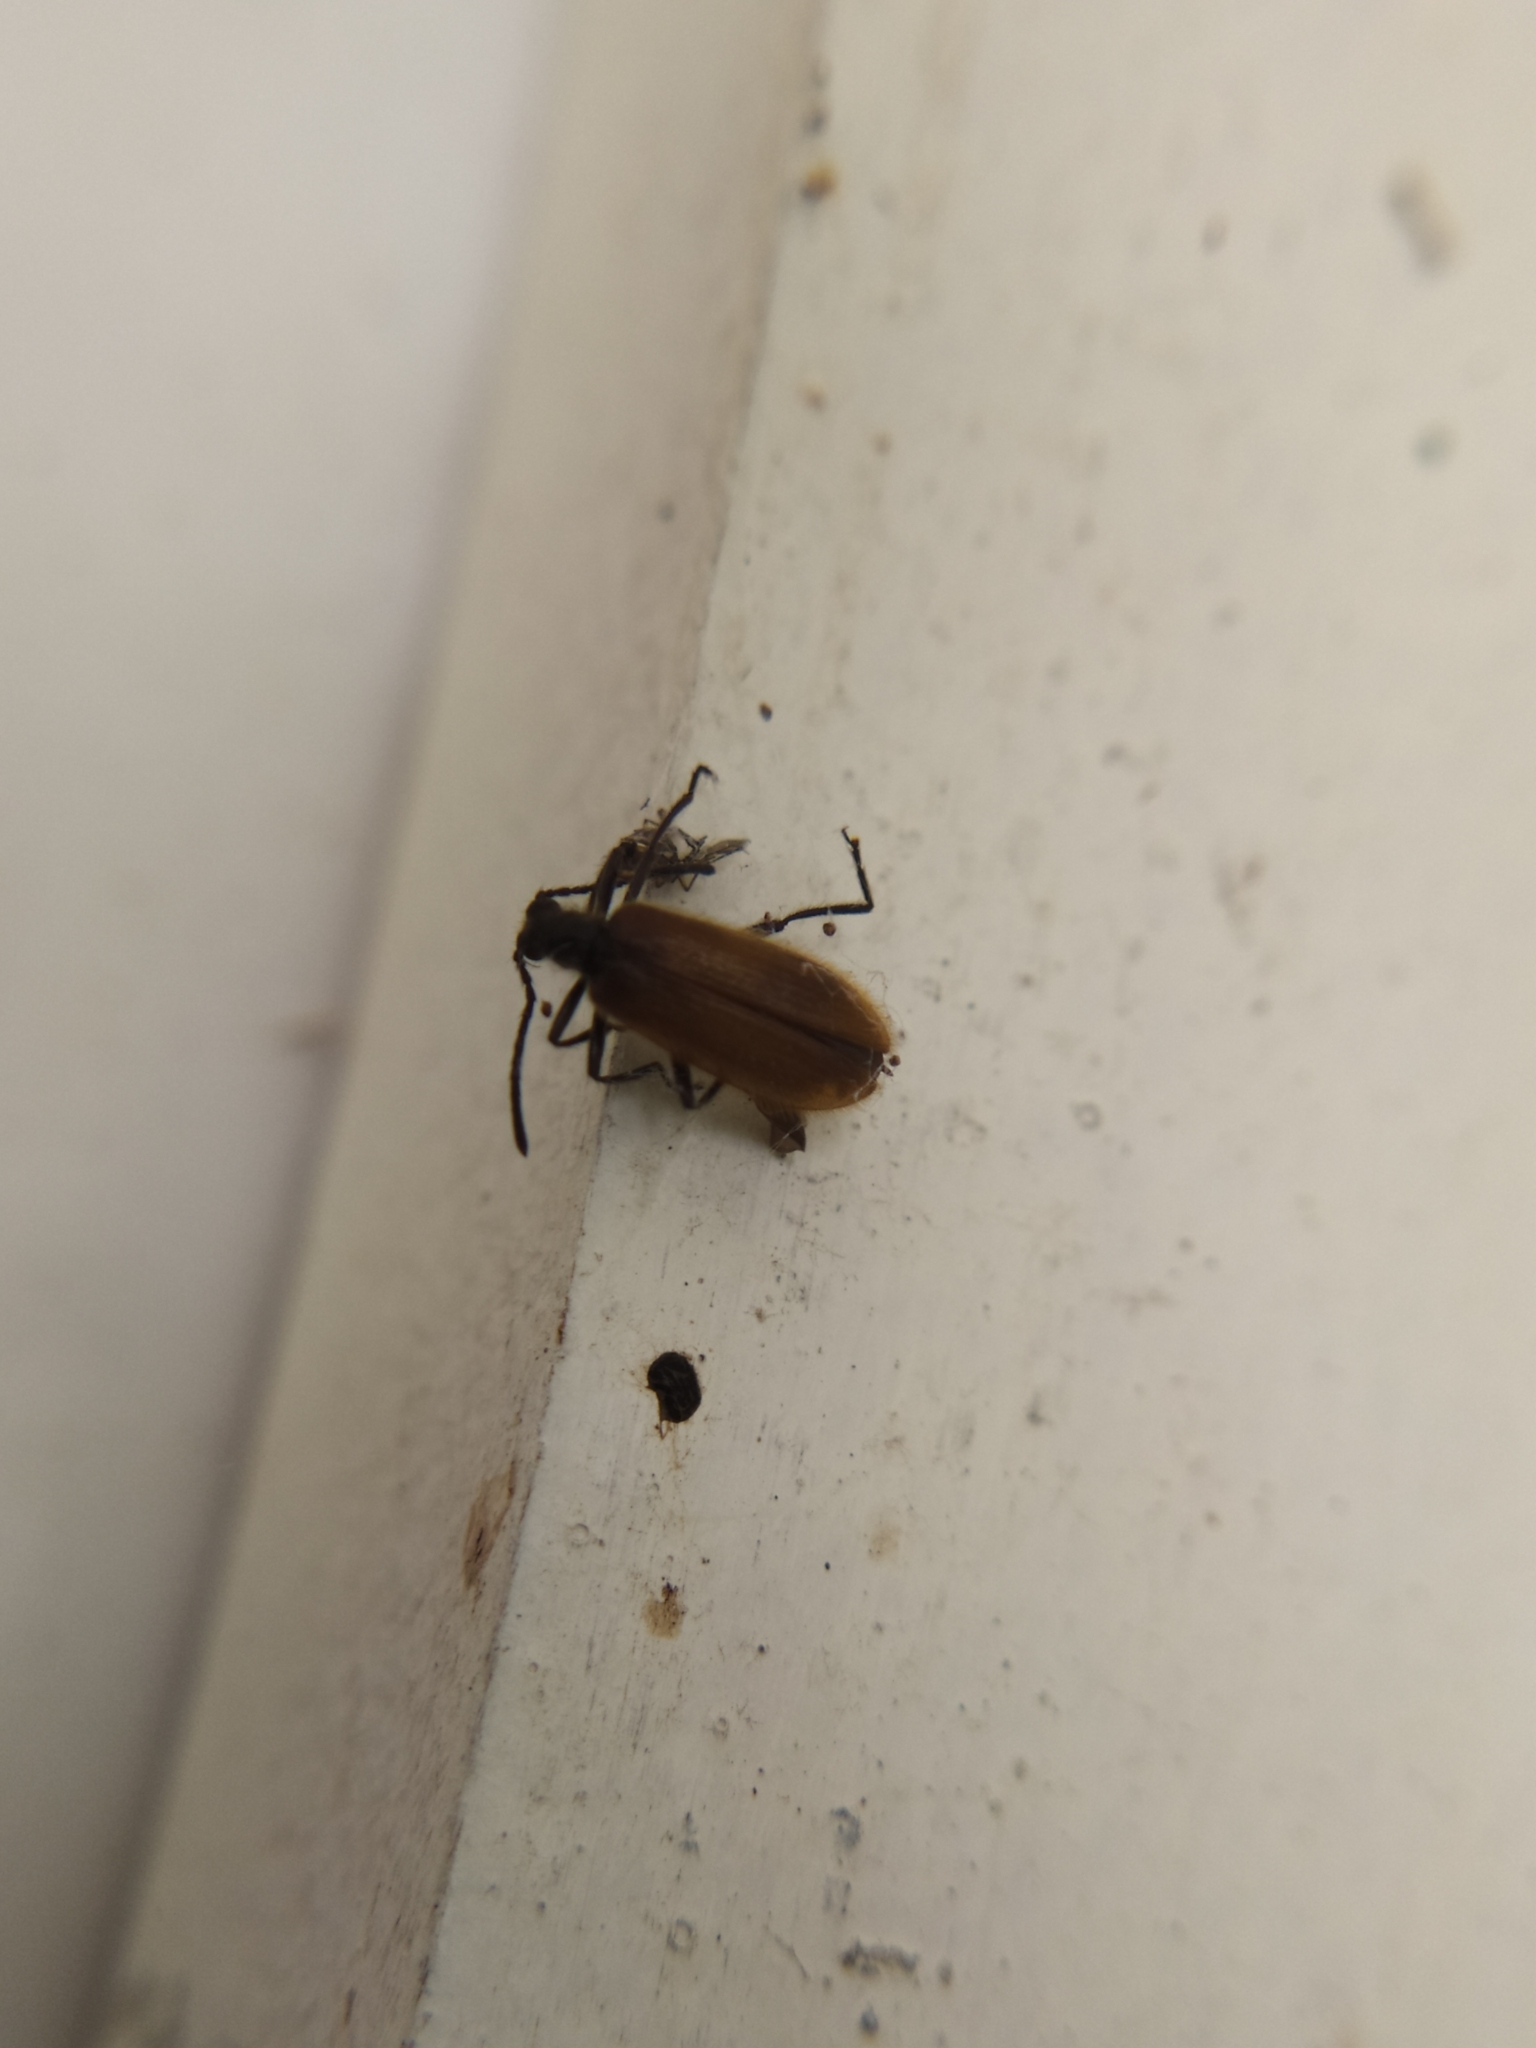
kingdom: Animalia
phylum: Arthropoda
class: Insecta
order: Coleoptera
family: Tenebrionidae
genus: Lagria
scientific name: Lagria hirta
